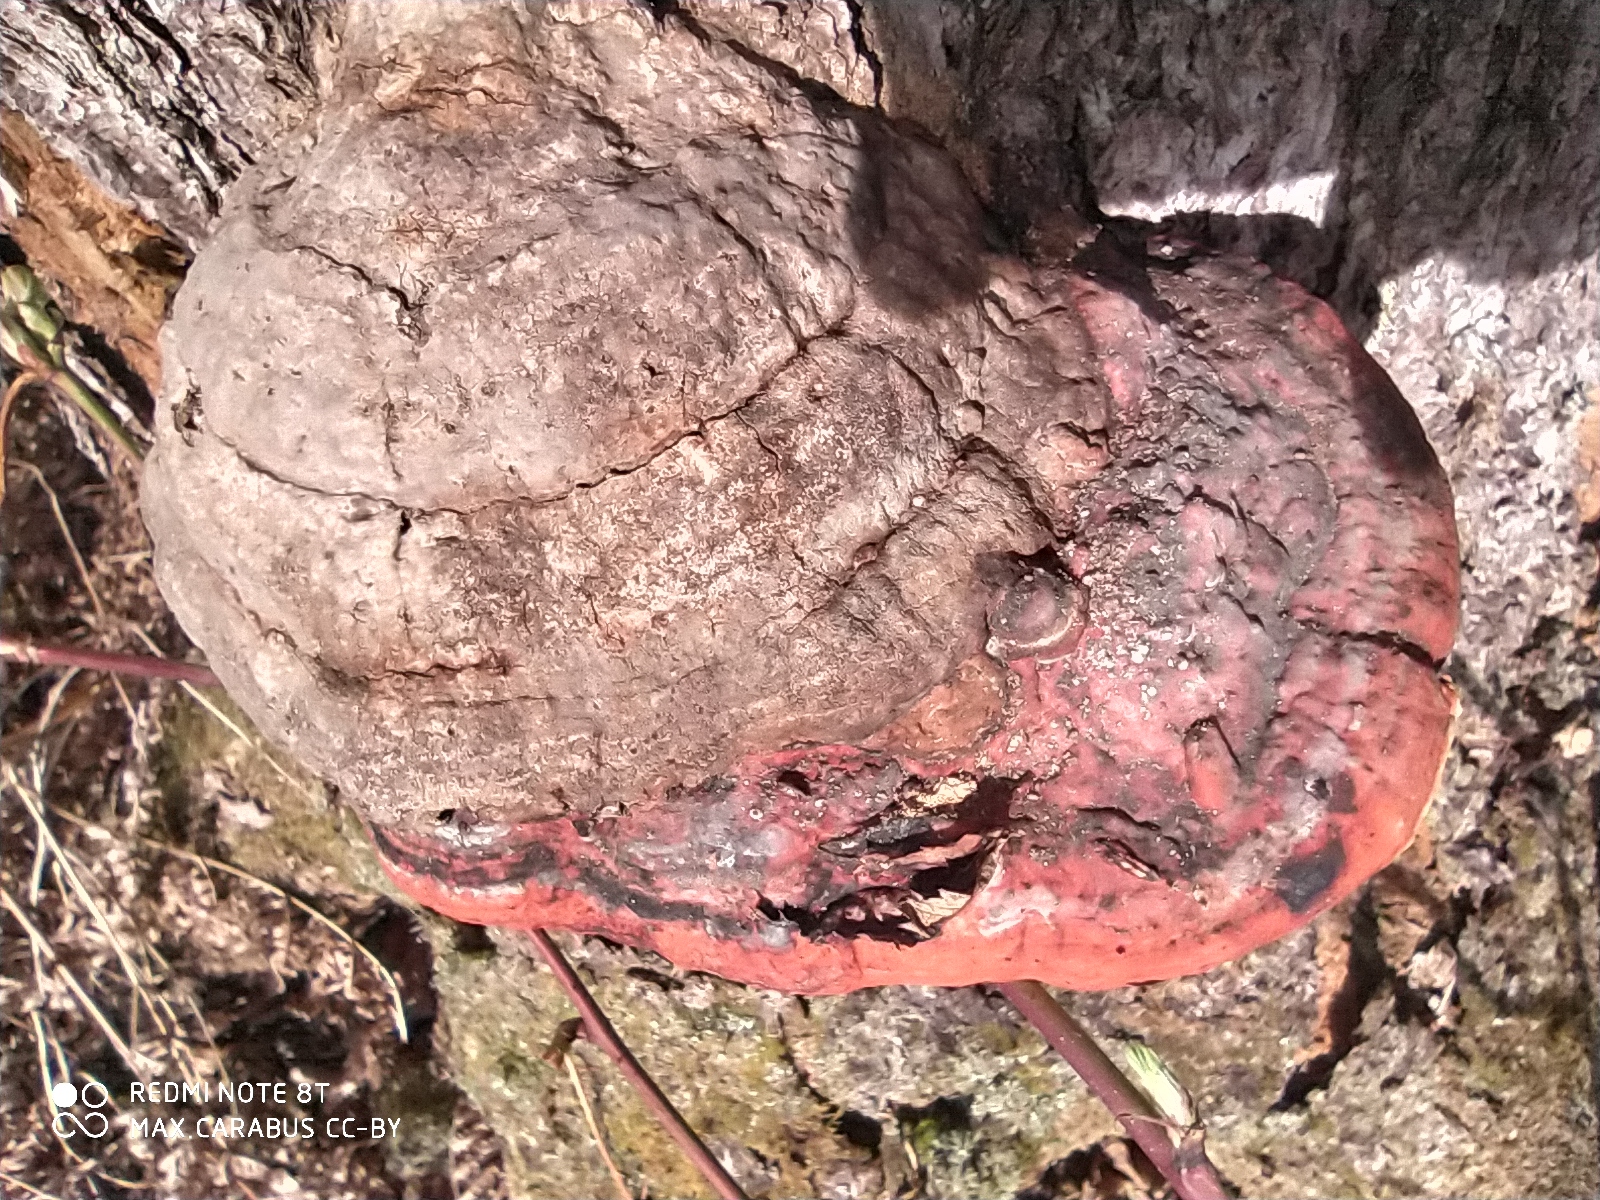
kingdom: Fungi
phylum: Basidiomycota
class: Agaricomycetes
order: Polyporales
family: Fomitopsidaceae
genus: Fomitopsis
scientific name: Fomitopsis pinicola
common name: Red-belted bracket
